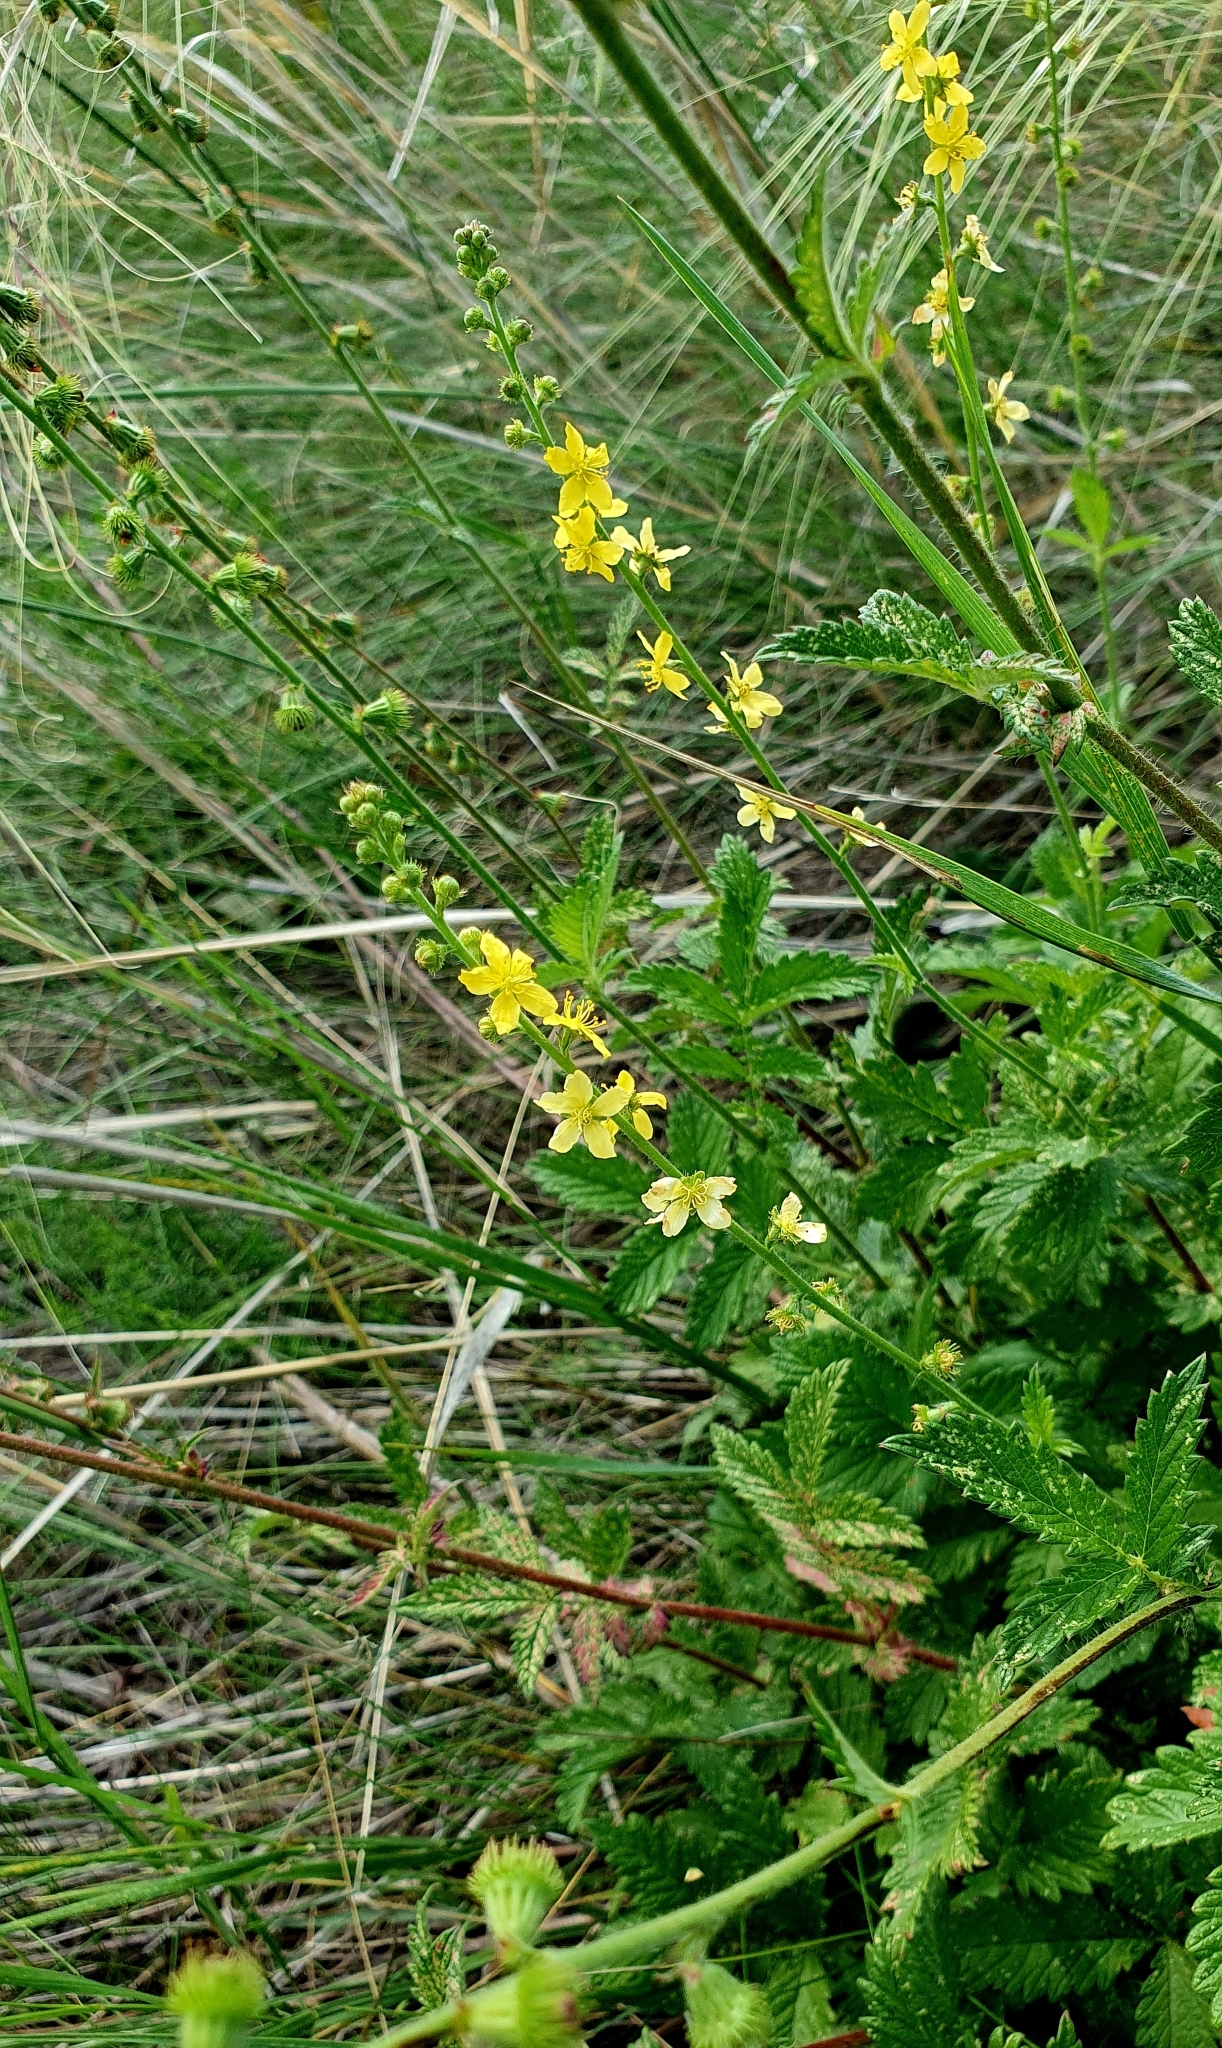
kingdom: Plantae
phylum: Tracheophyta
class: Magnoliopsida
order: Rosales
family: Rosaceae
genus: Agrimonia
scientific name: Agrimonia eupatoria
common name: Agrimony
